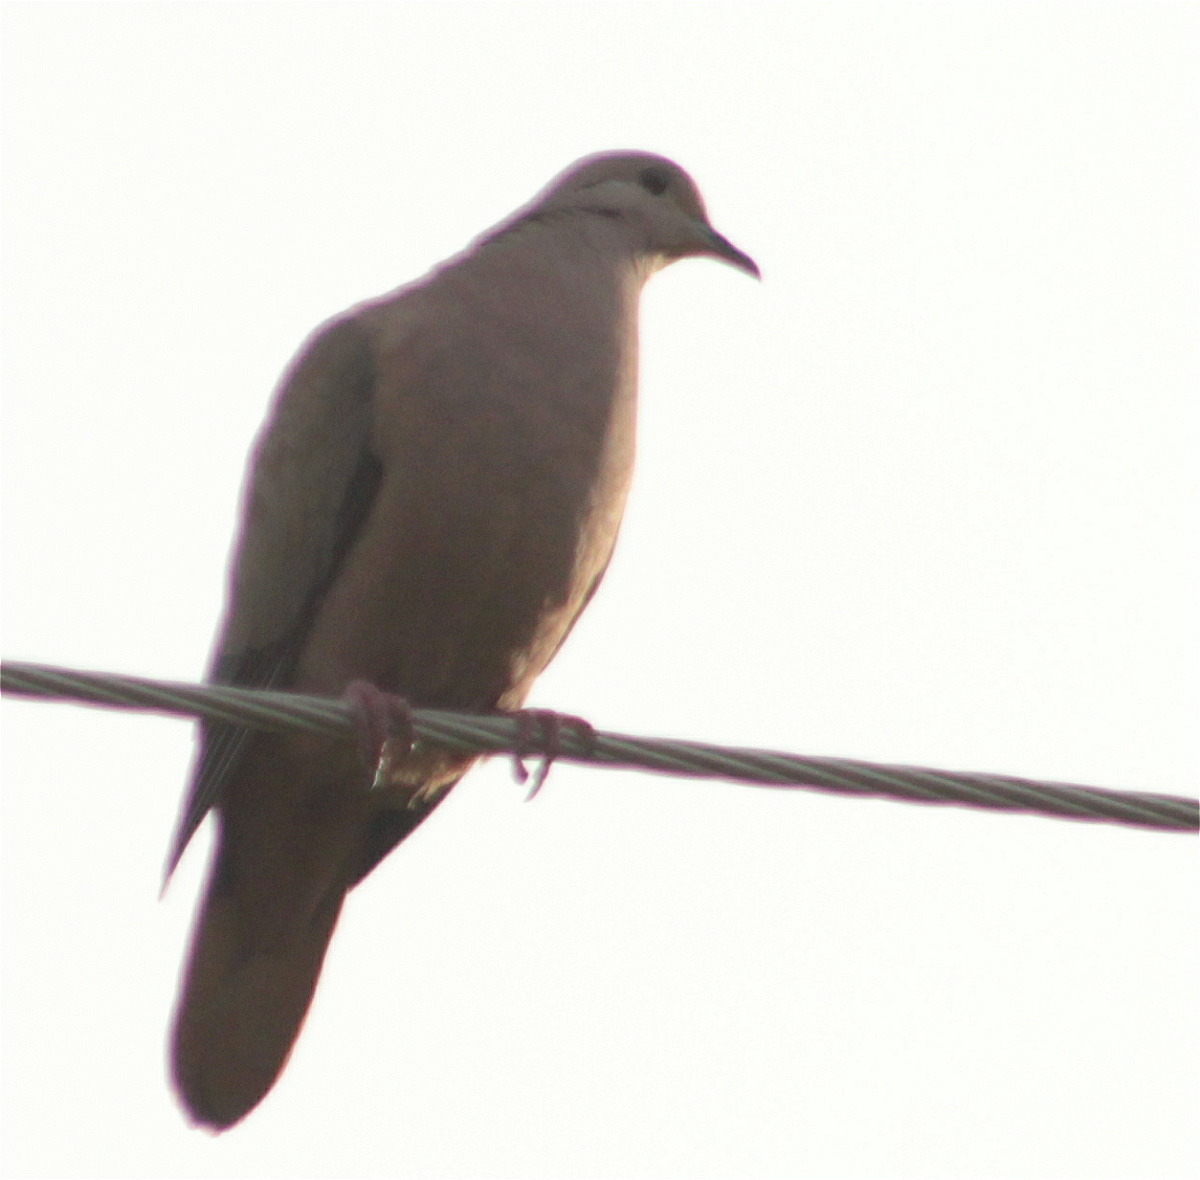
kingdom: Animalia
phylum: Chordata
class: Aves
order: Columbiformes
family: Columbidae
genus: Zenaida
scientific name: Zenaida auriculata
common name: Eared dove
